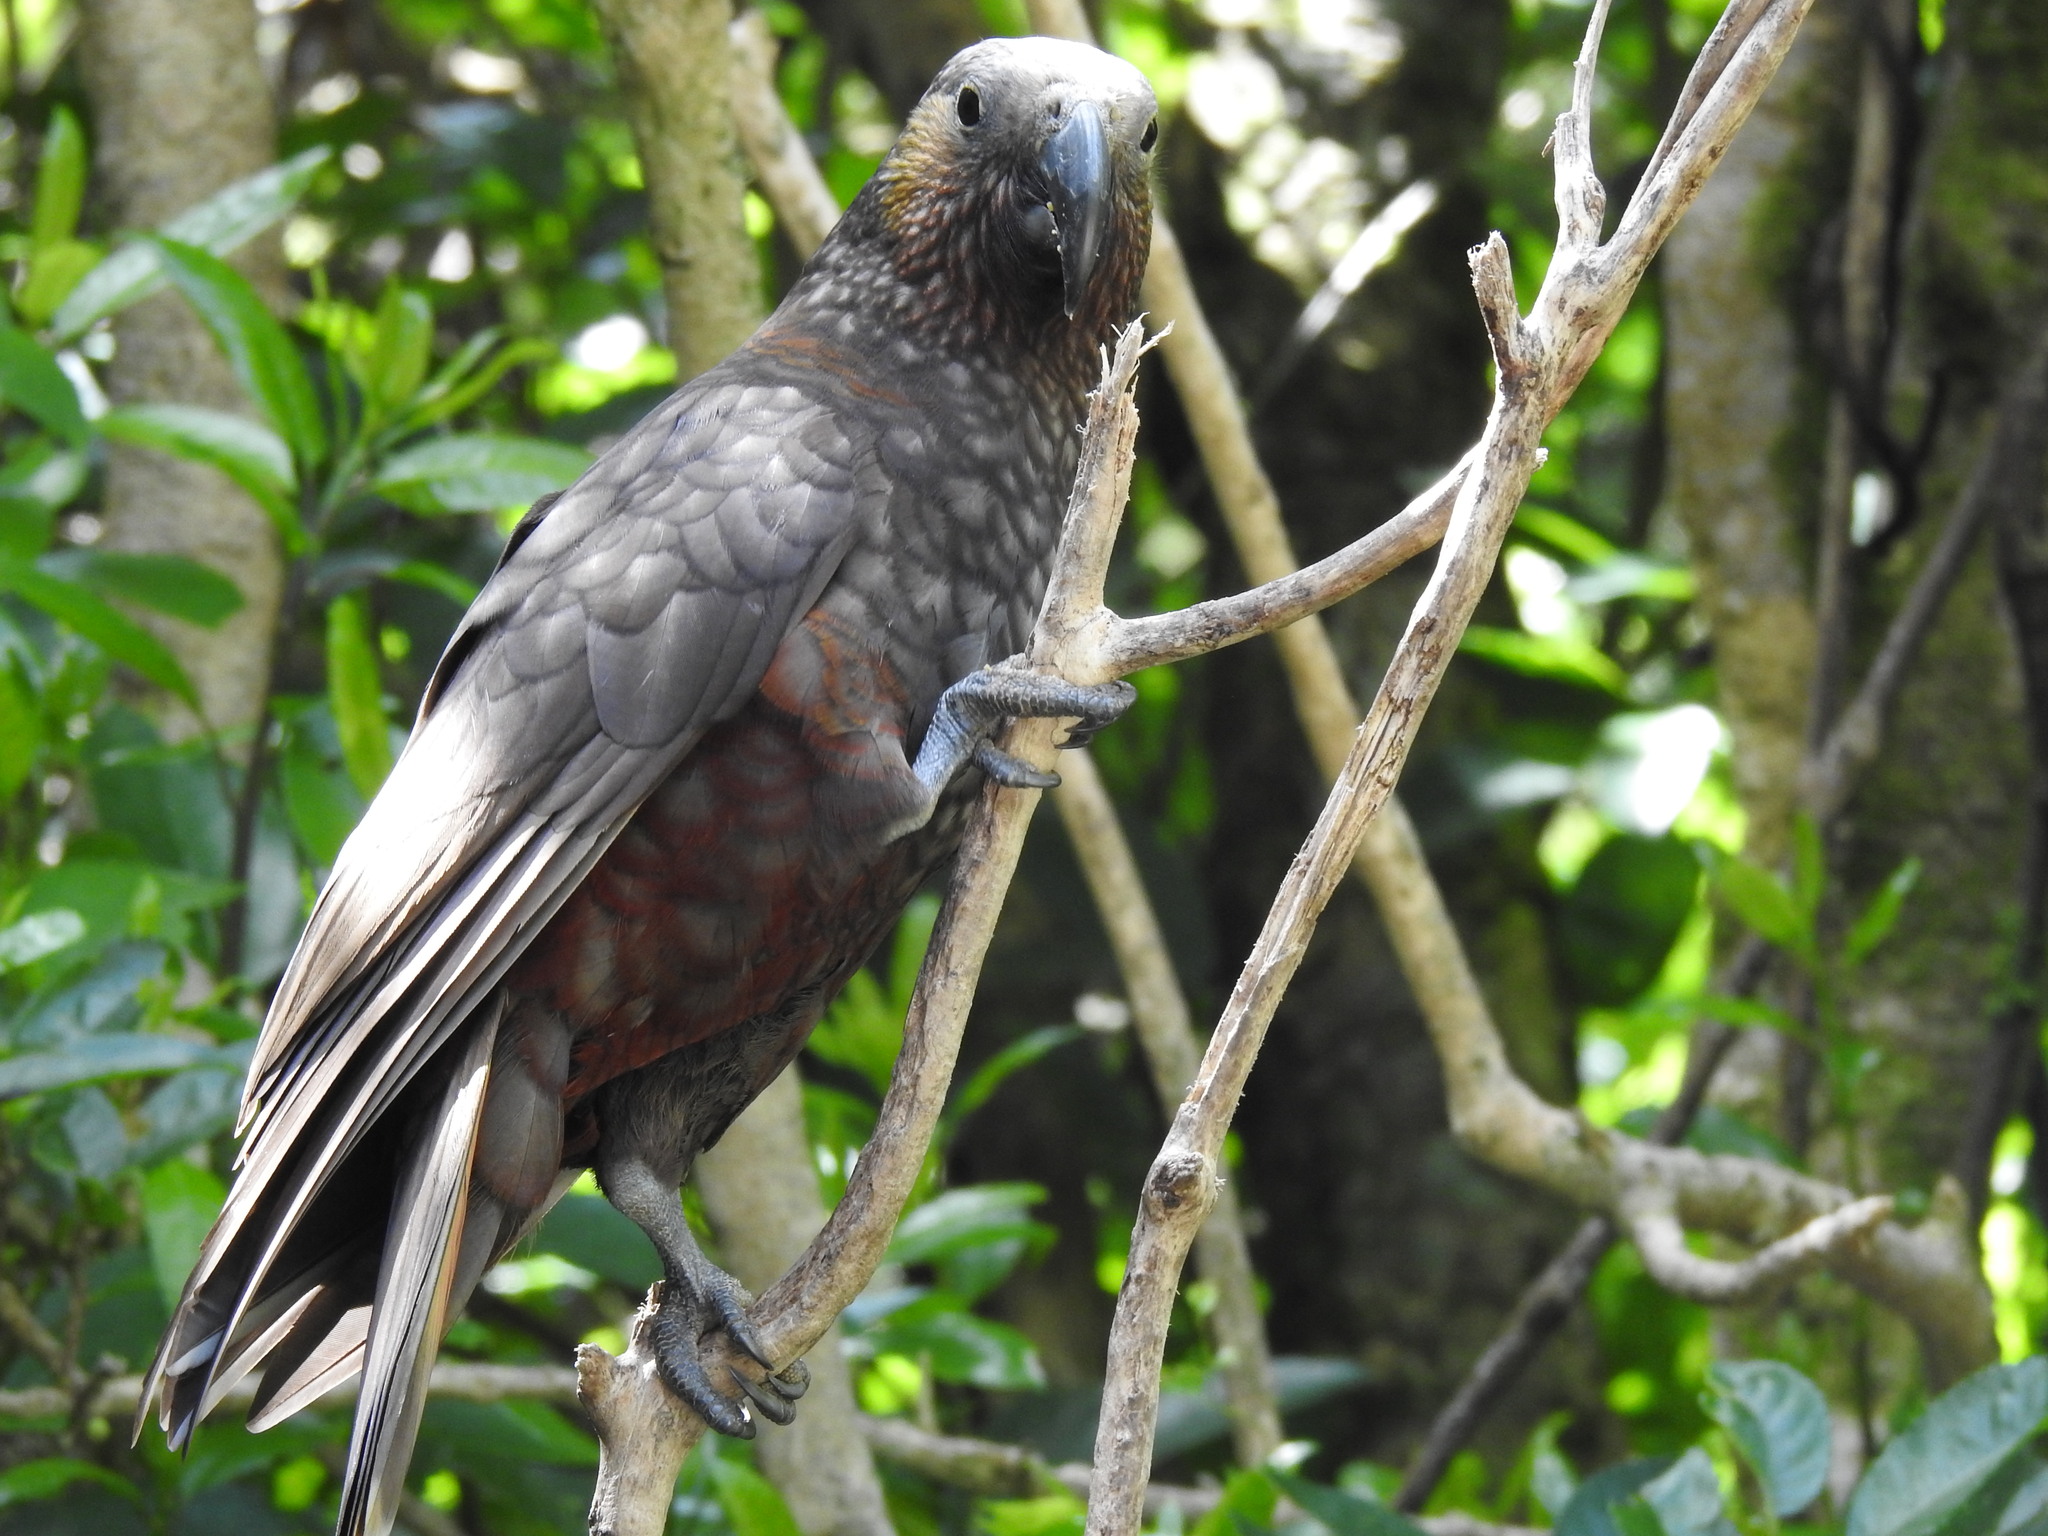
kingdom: Animalia
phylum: Chordata
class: Aves
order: Psittaciformes
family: Psittacidae
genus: Nestor
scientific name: Nestor meridionalis
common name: New zealand kaka
